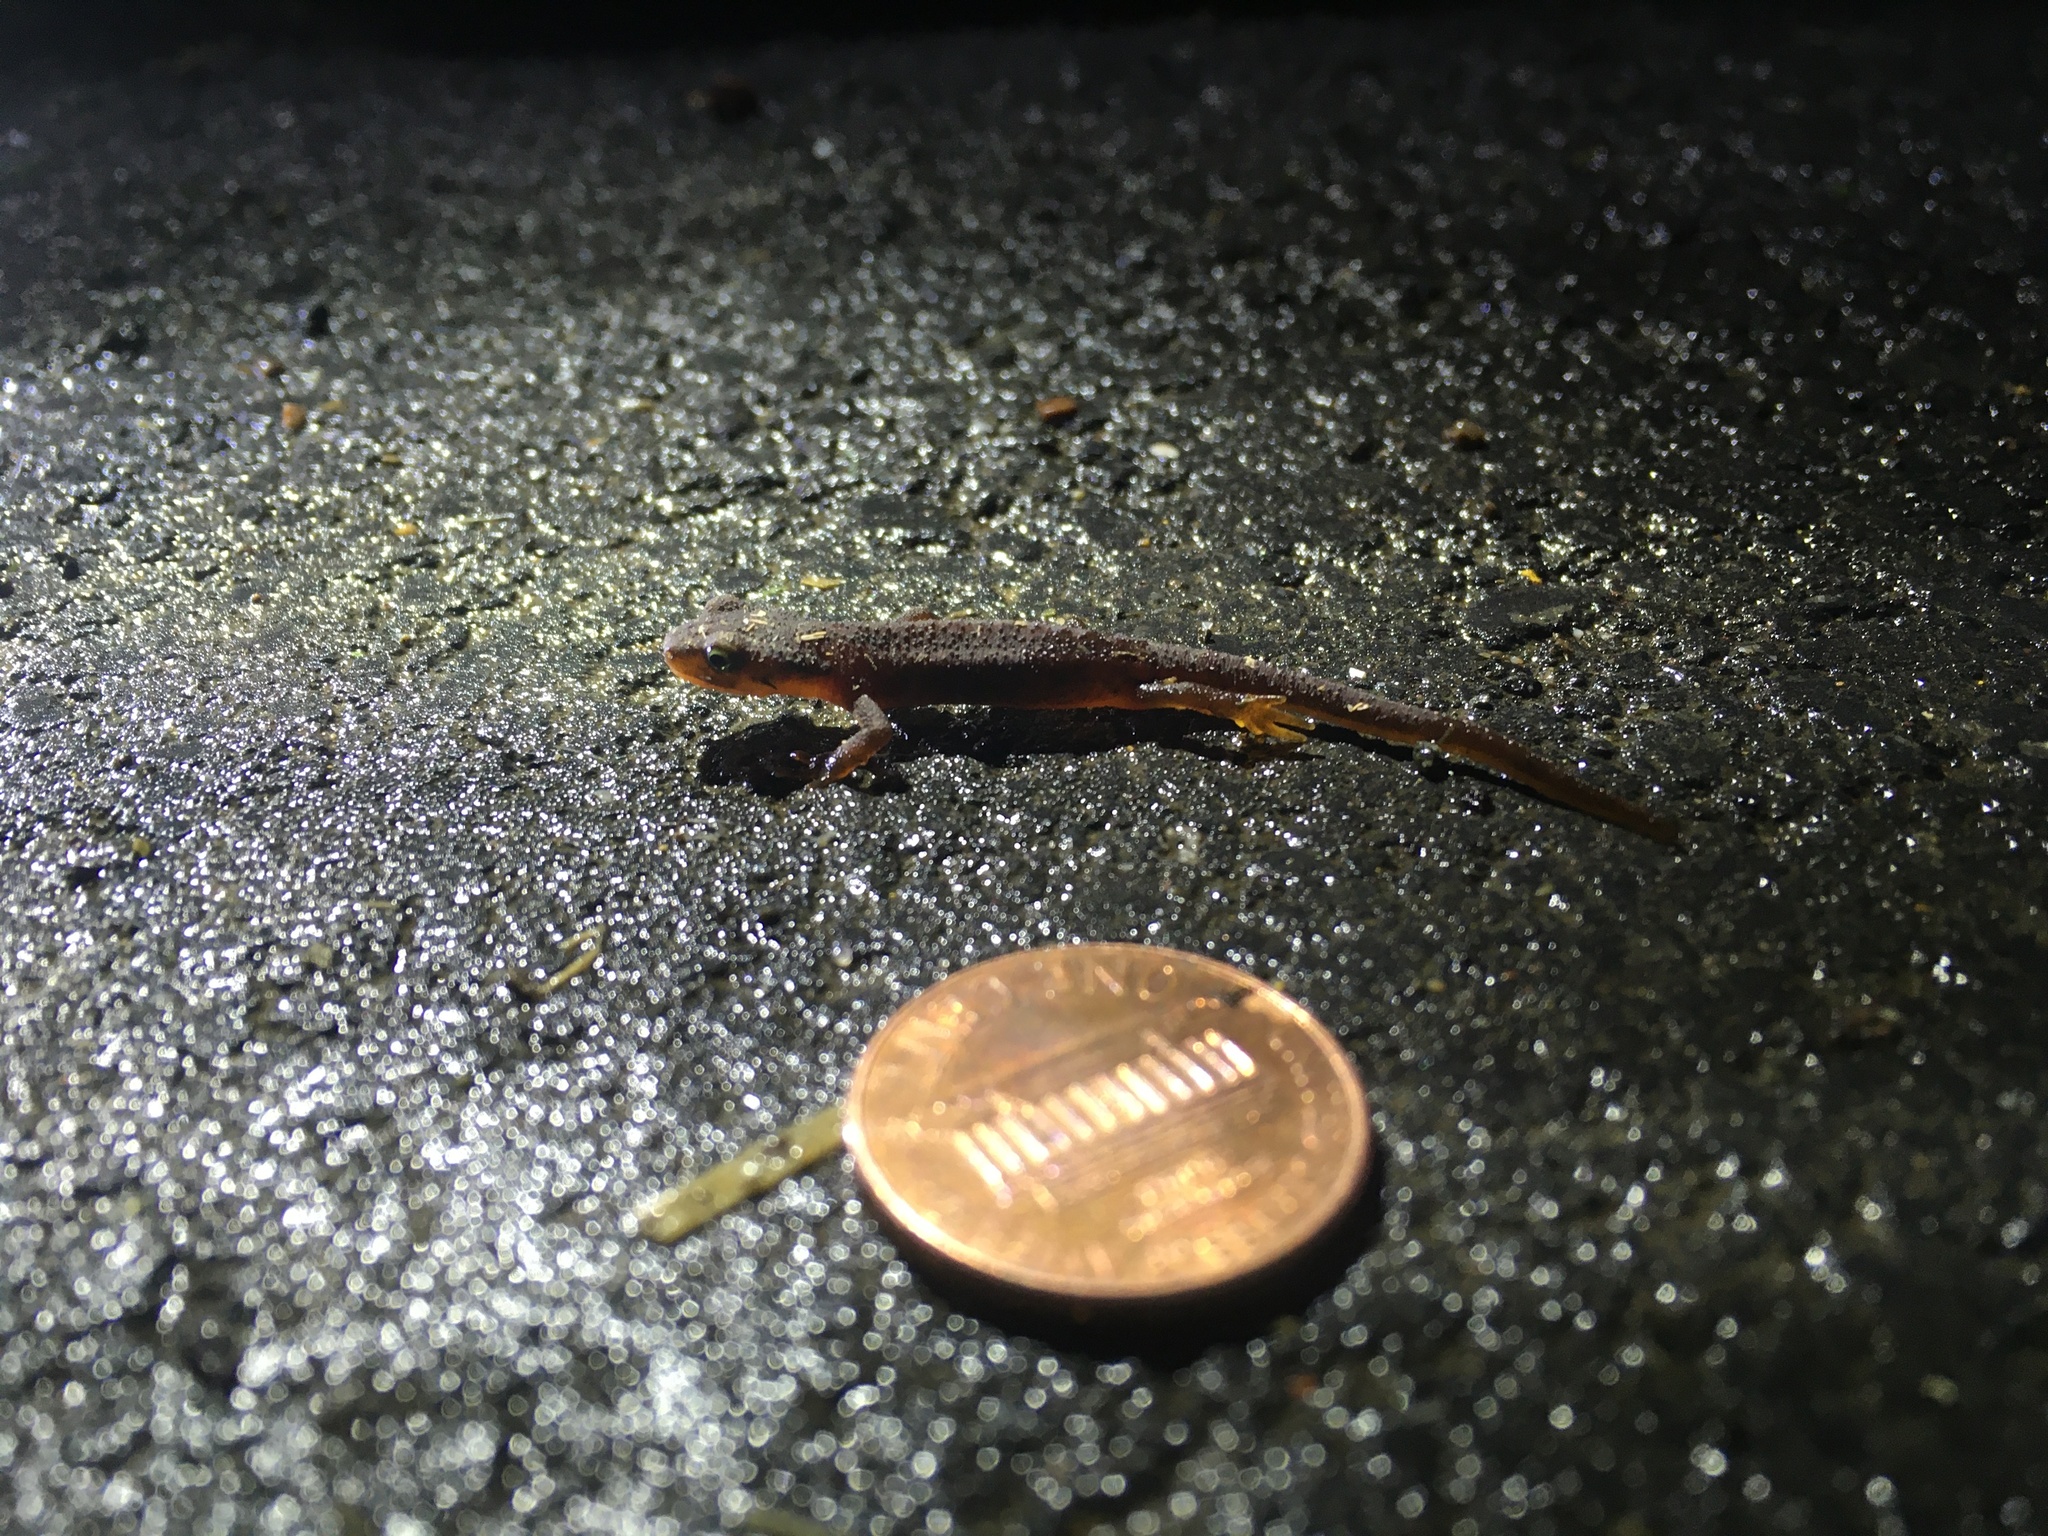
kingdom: Animalia
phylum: Chordata
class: Amphibia
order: Caudata
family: Salamandridae
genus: Taricha
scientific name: Taricha torosa
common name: California newt
